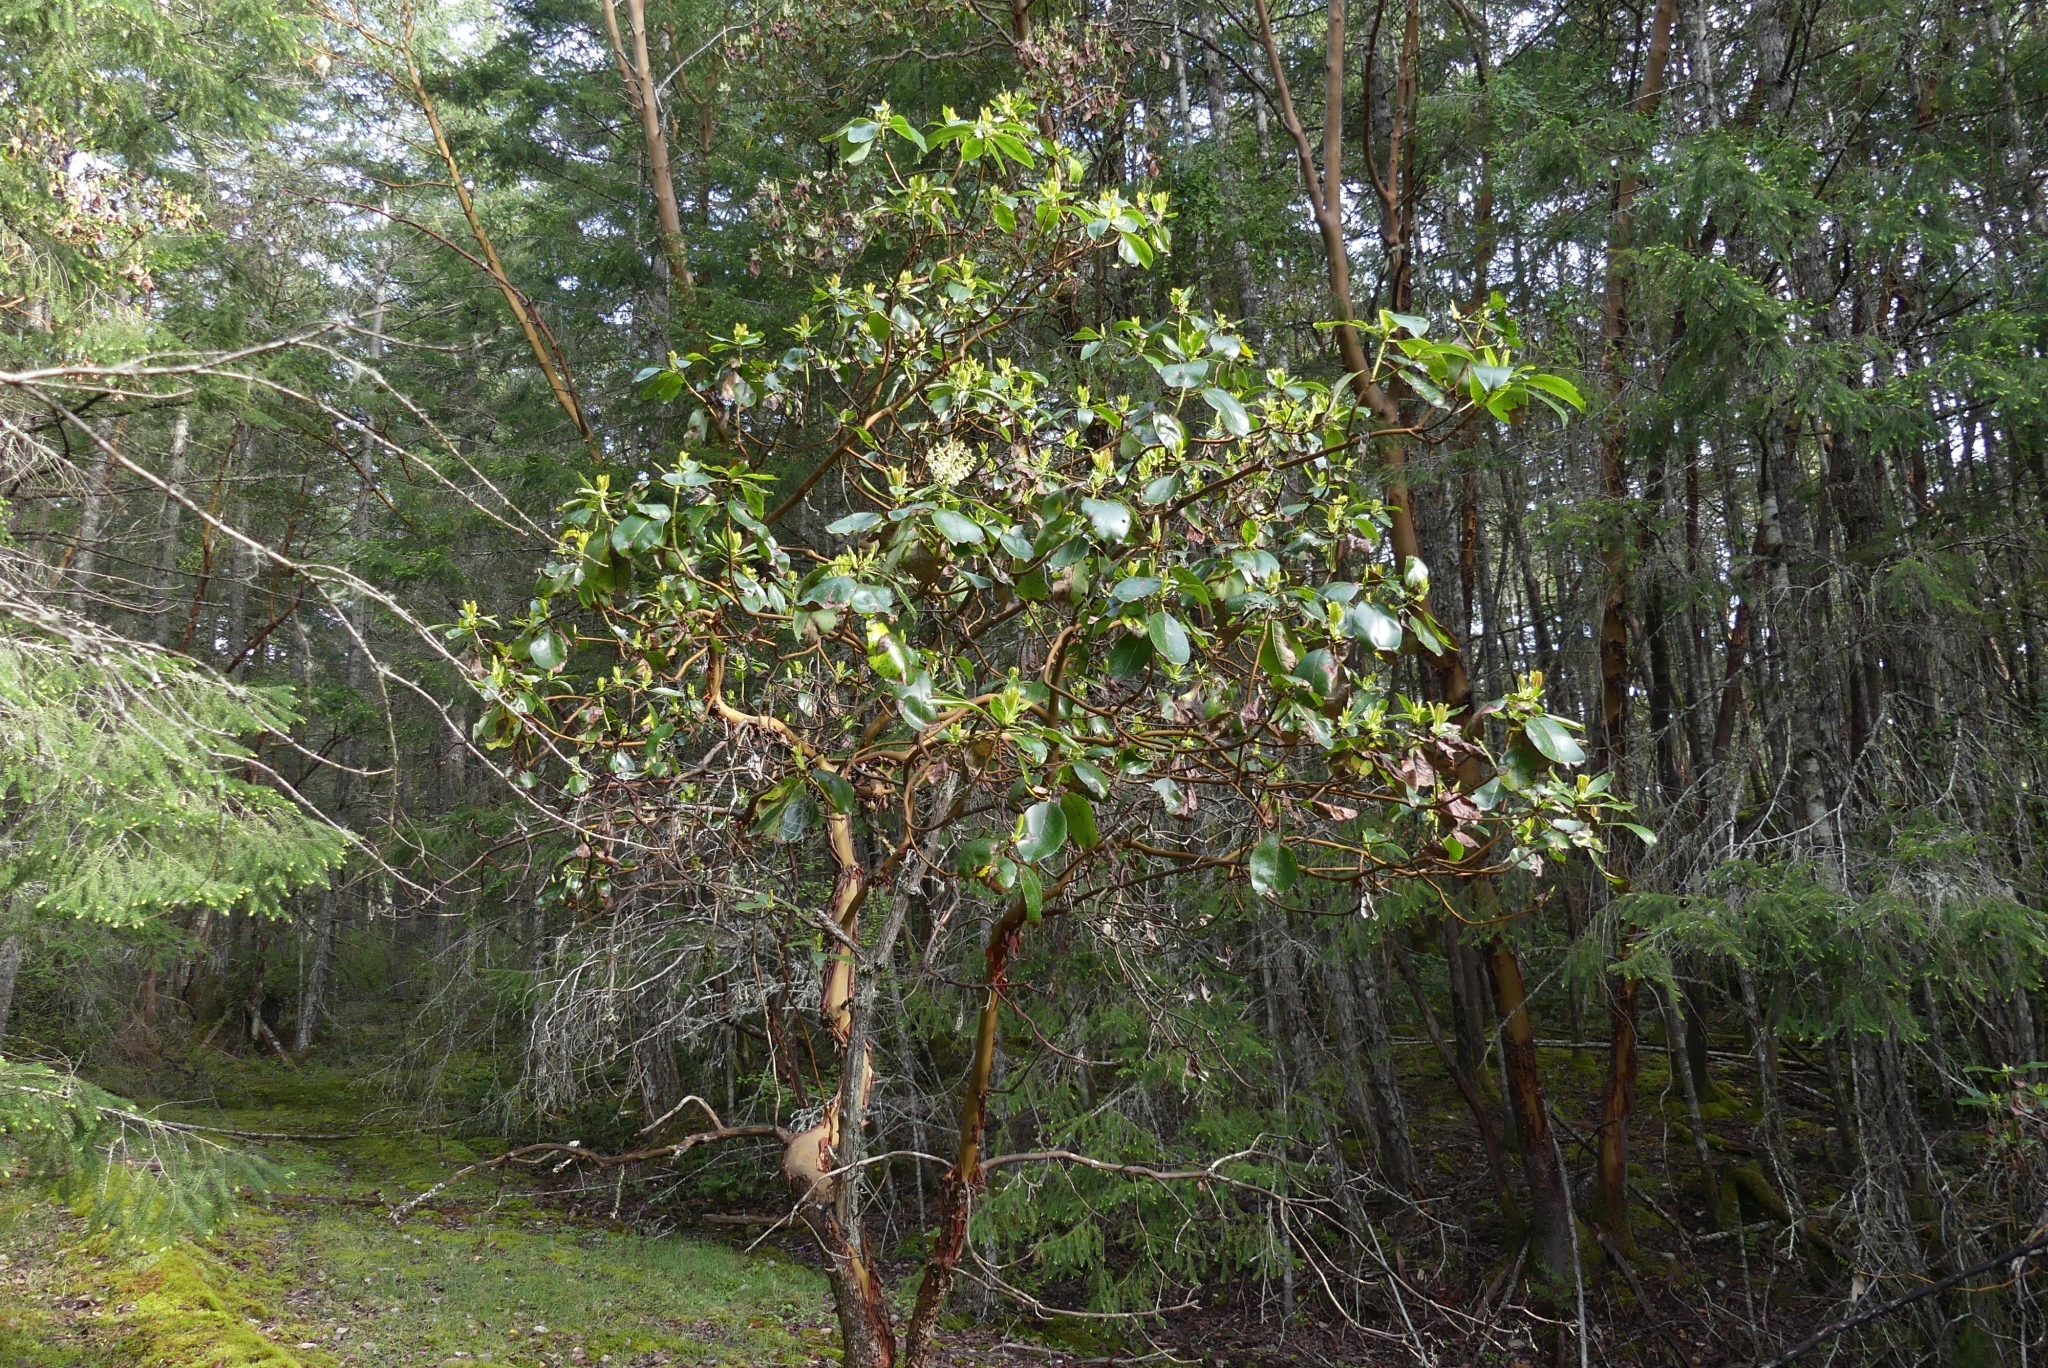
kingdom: Plantae
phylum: Tracheophyta
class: Magnoliopsida
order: Ericales
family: Ericaceae
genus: Arbutus
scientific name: Arbutus menziesii
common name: Pacific madrone
